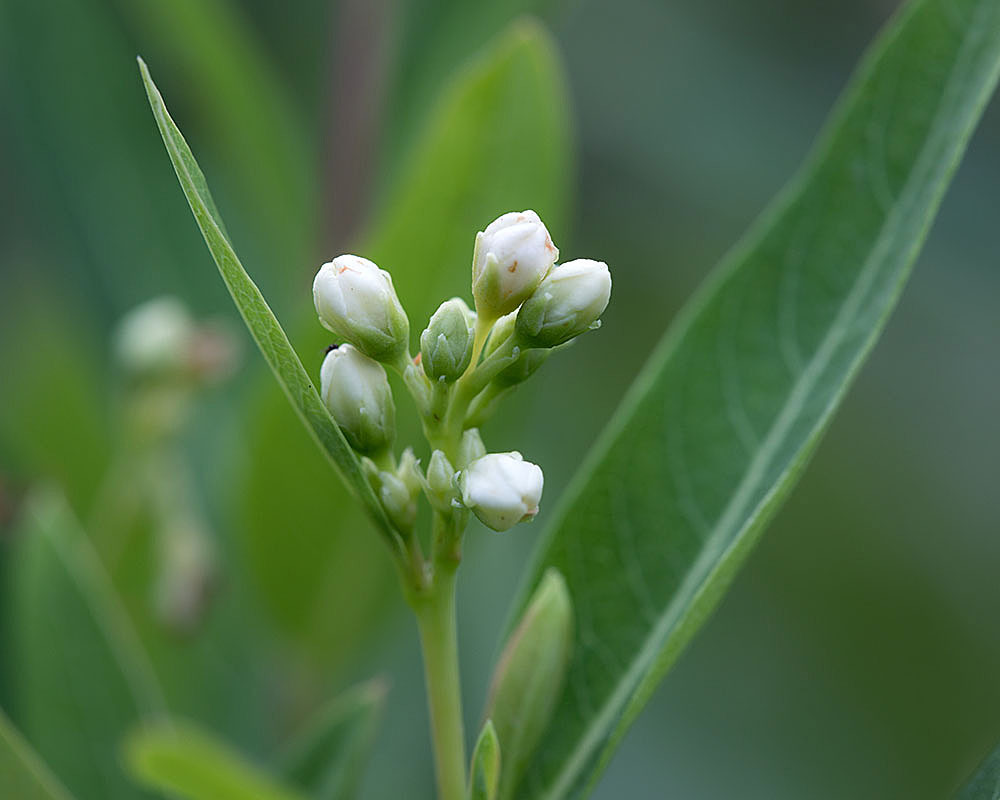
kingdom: Plantae
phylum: Tracheophyta
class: Magnoliopsida
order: Gentianales
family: Apocynaceae
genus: Apocynum
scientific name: Apocynum cannabinum
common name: Hemp dogbane
